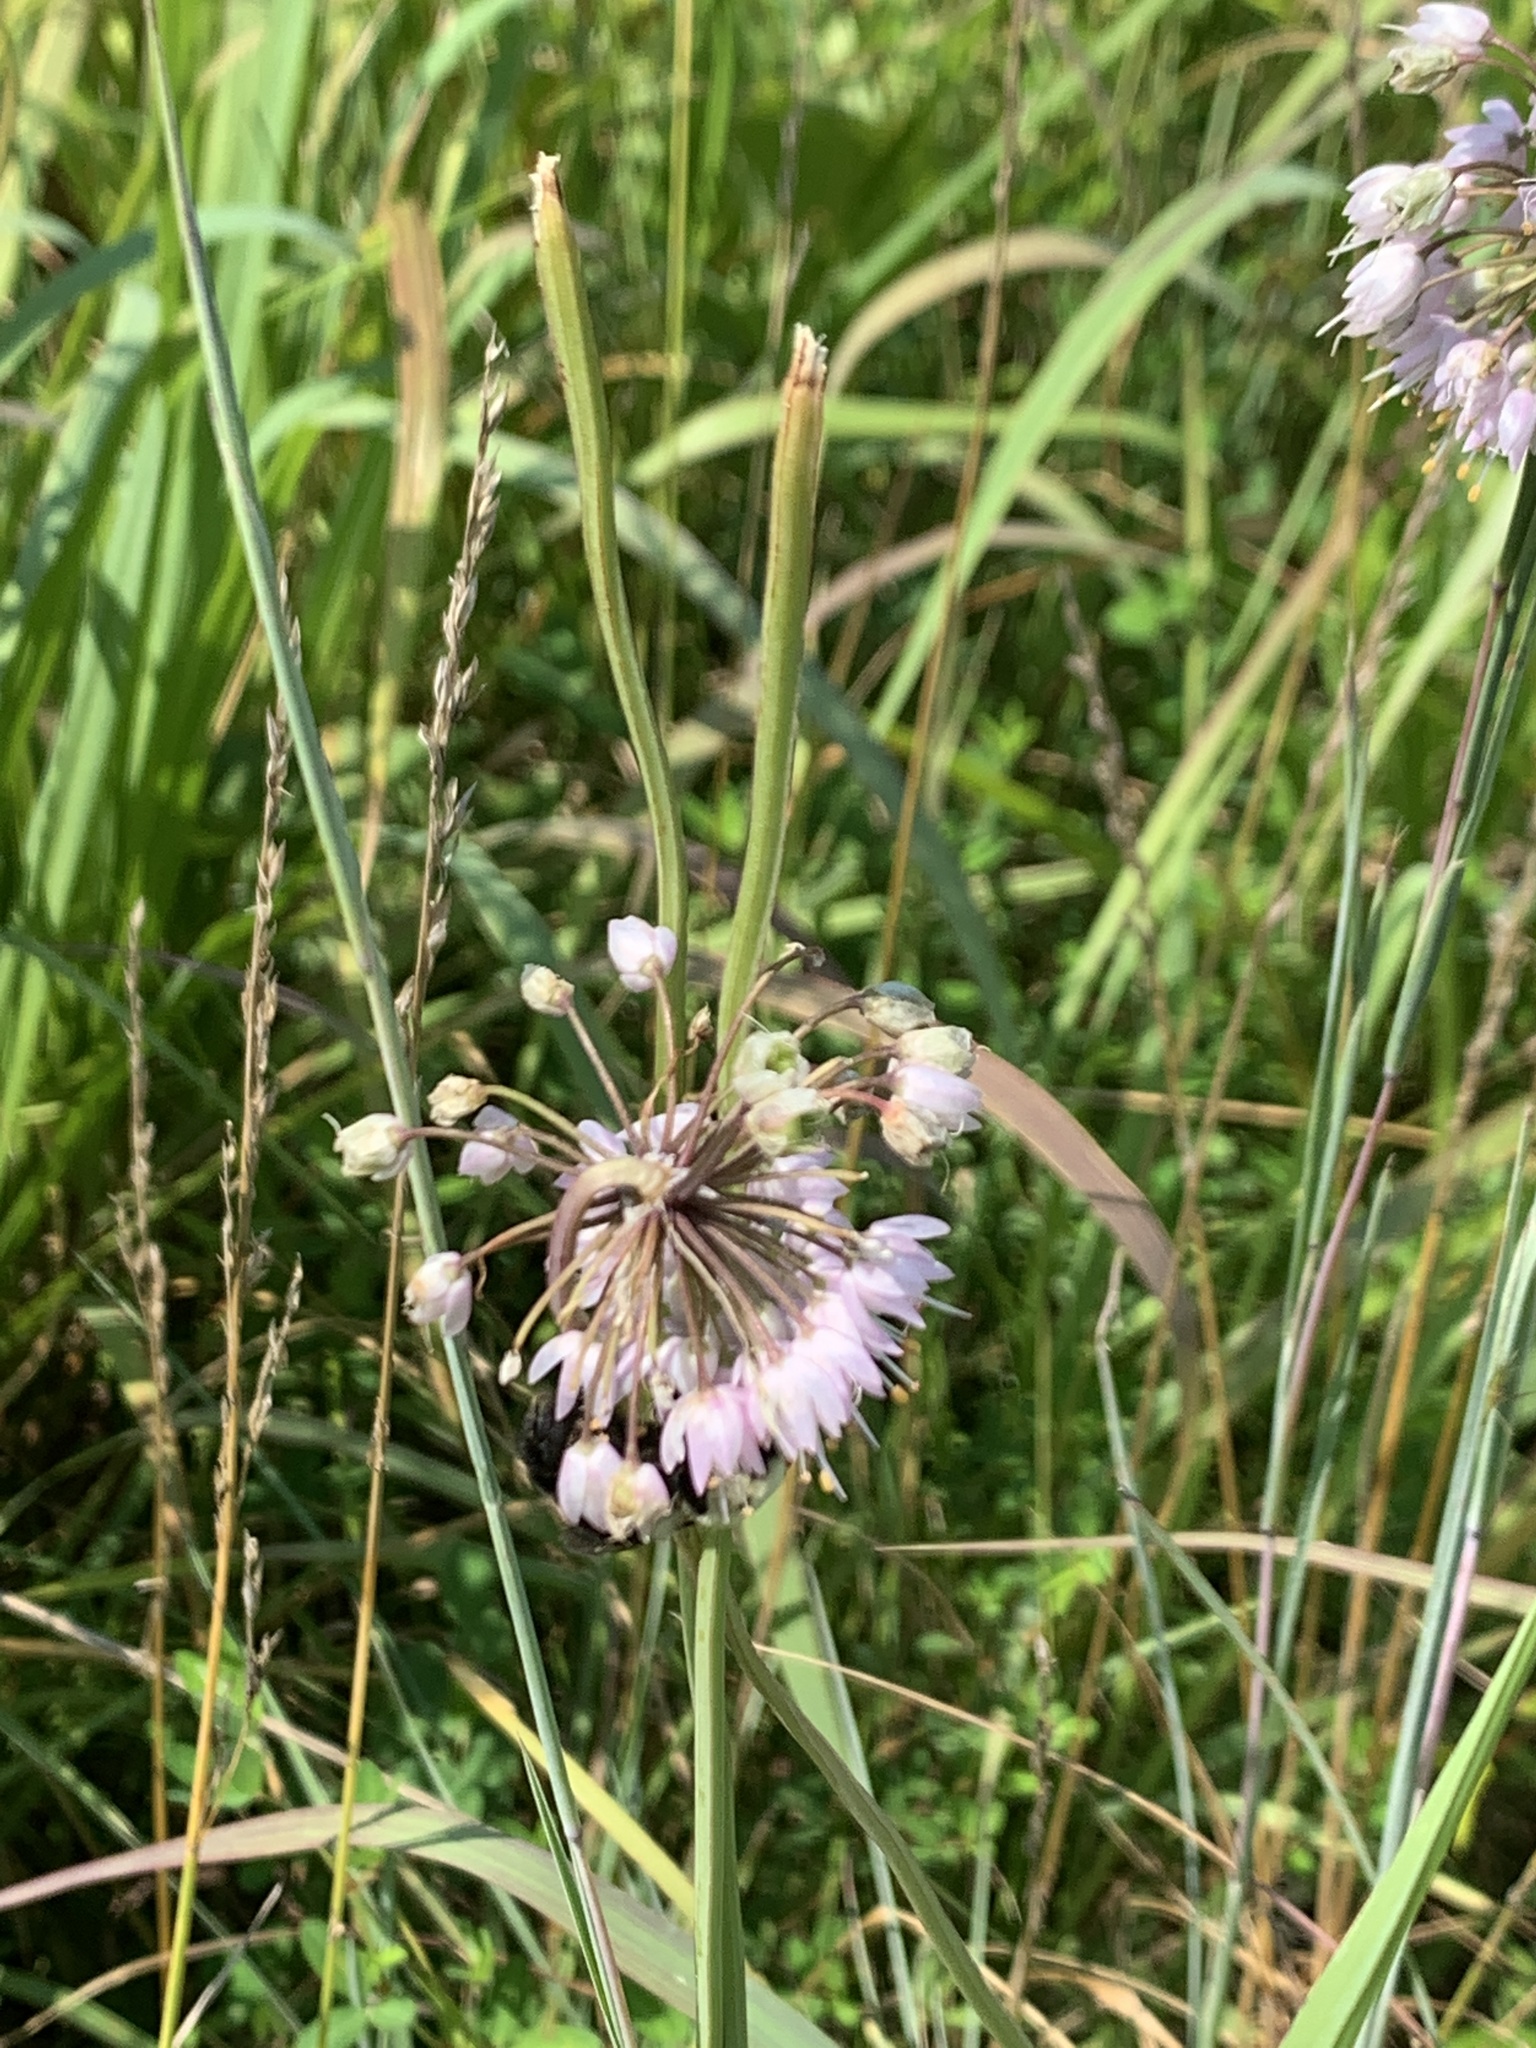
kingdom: Plantae
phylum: Tracheophyta
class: Liliopsida
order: Asparagales
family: Amaryllidaceae
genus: Allium
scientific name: Allium cernuum
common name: Nodding onion
